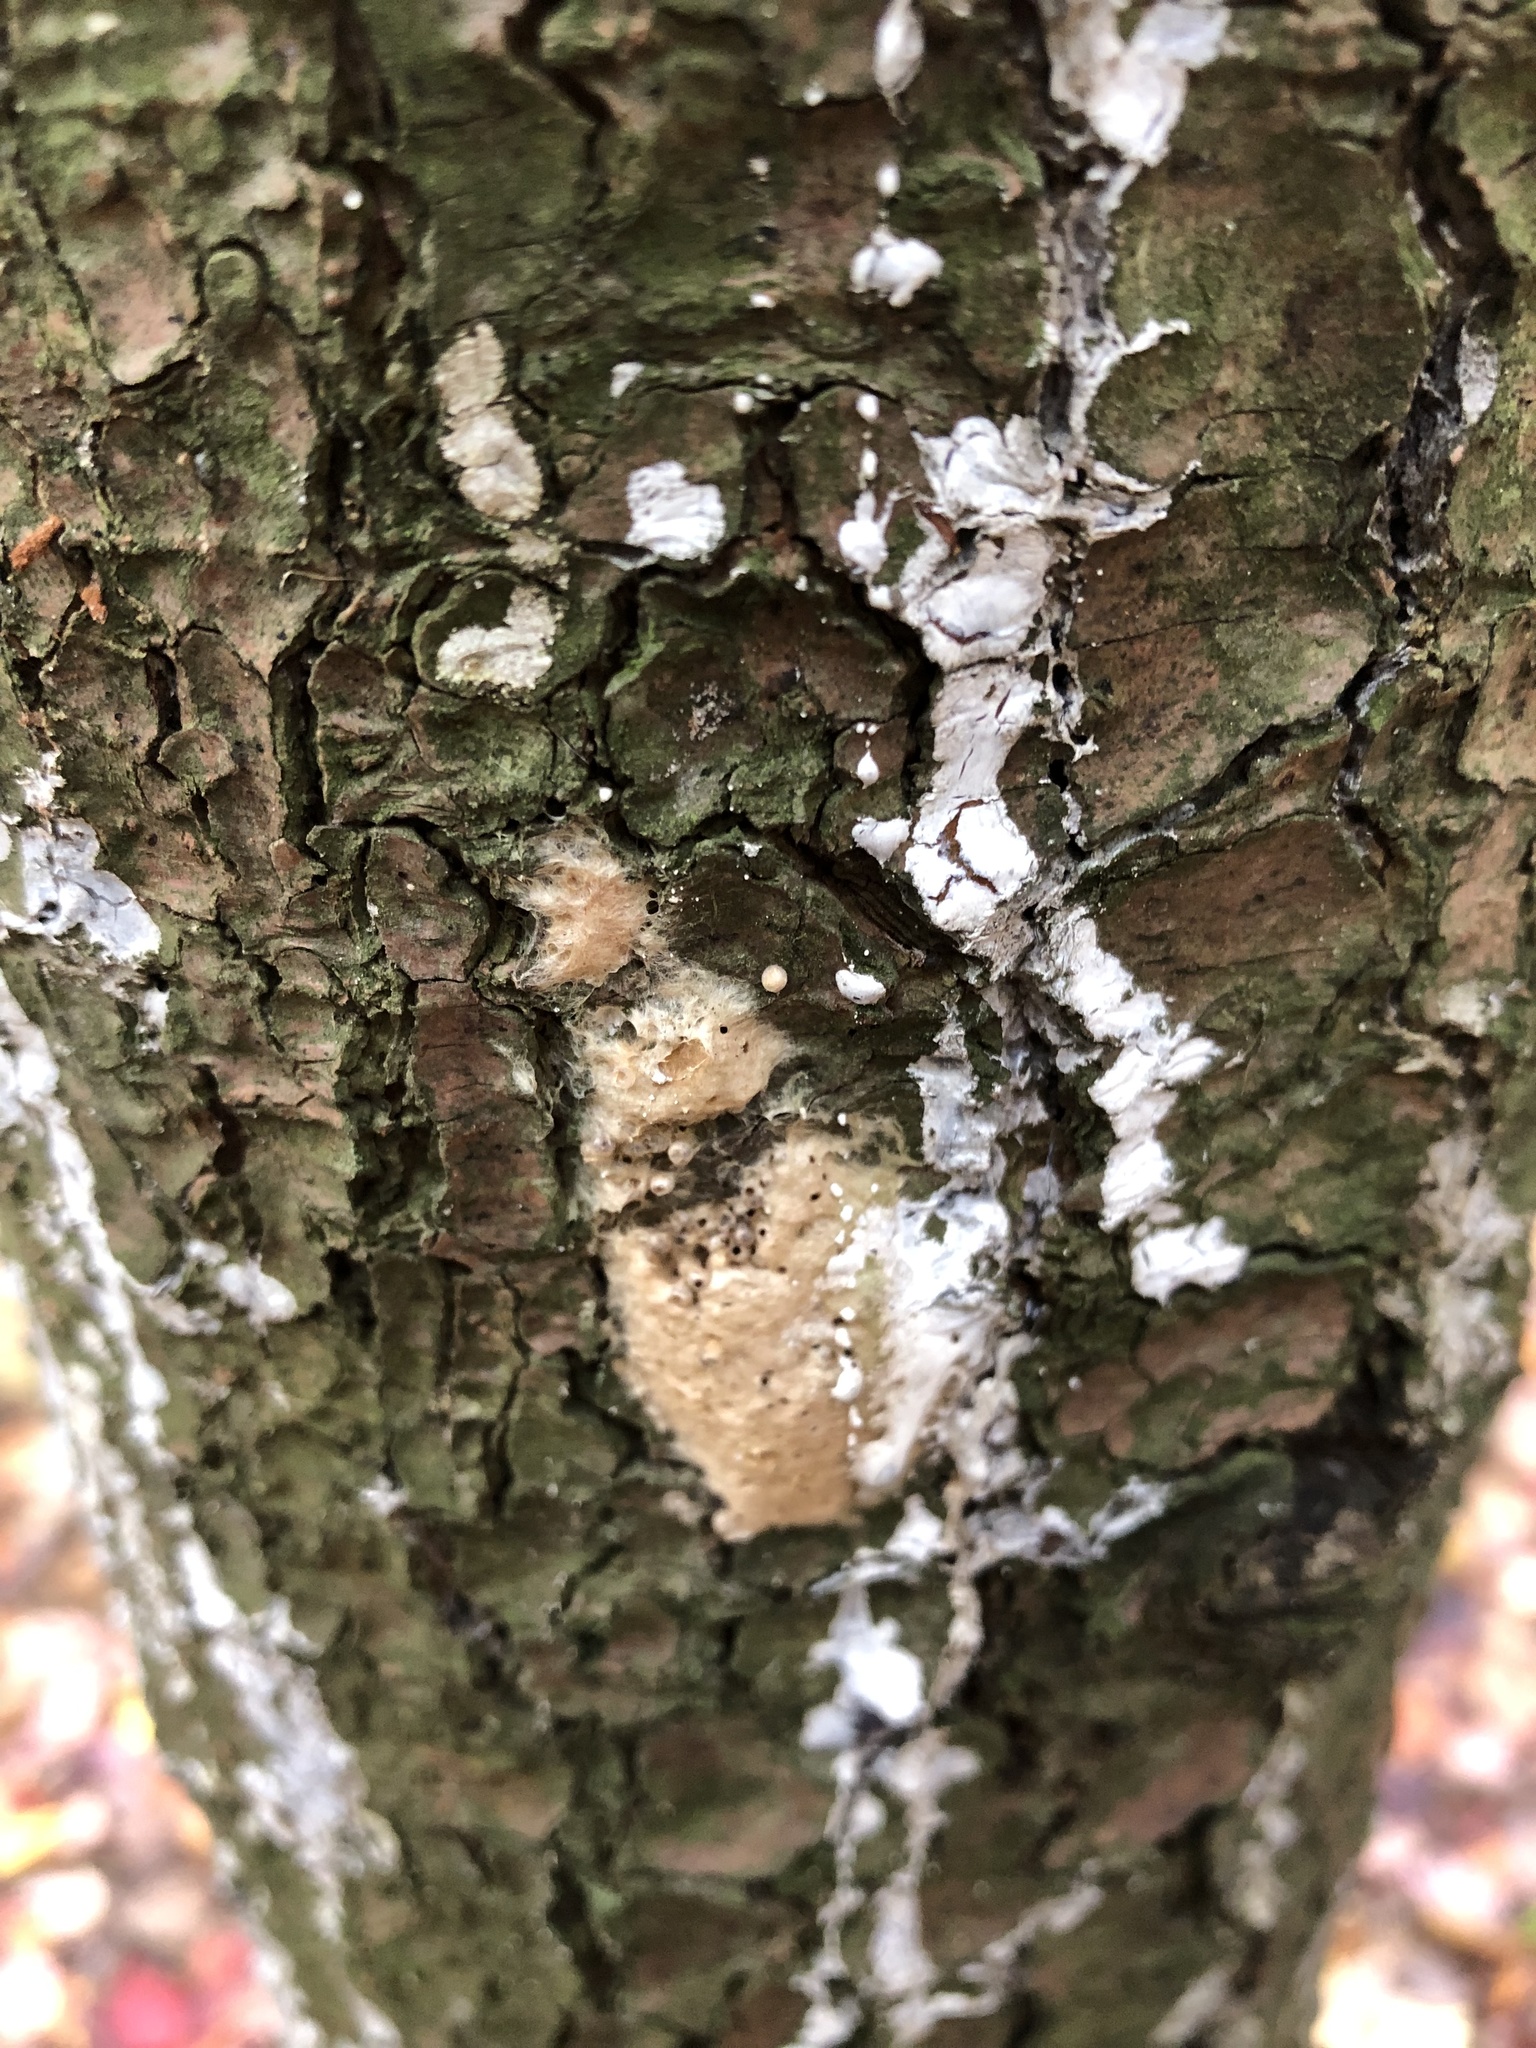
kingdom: Animalia
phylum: Arthropoda
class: Insecta
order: Lepidoptera
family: Erebidae
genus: Lymantria
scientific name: Lymantria dispar
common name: Gypsy moth
